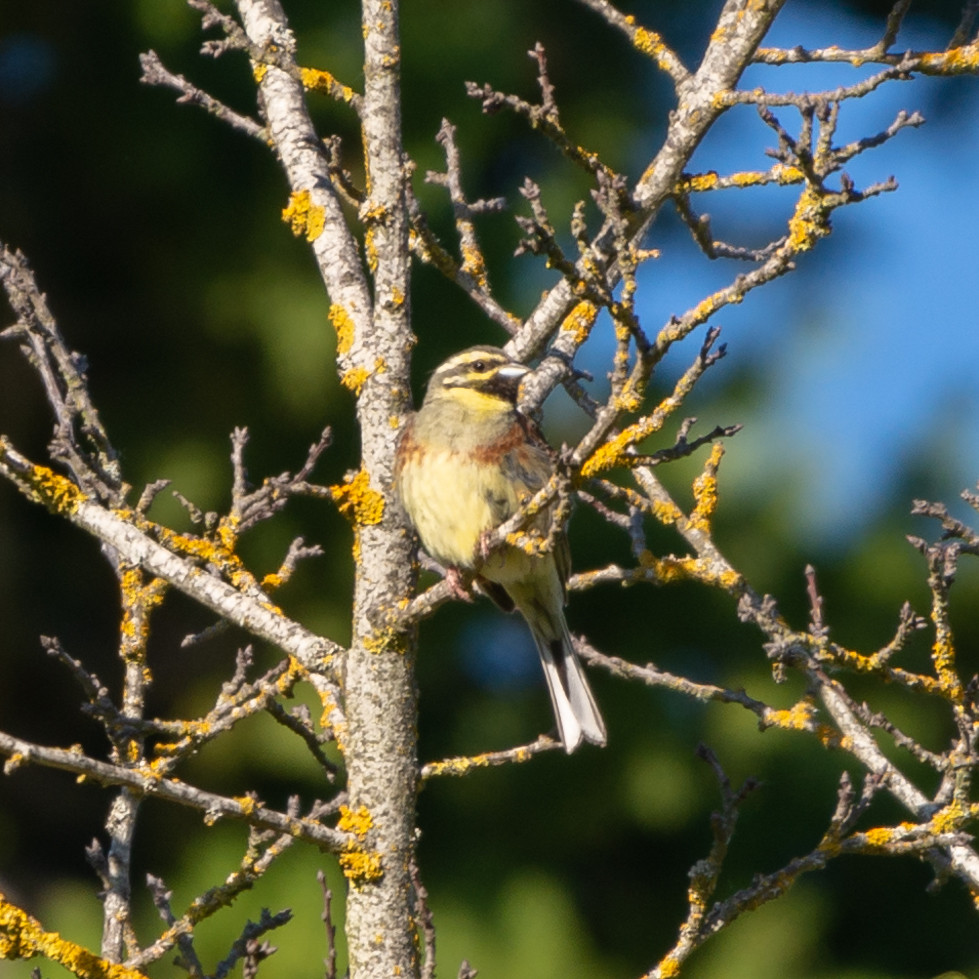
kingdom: Animalia
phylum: Chordata
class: Aves
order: Passeriformes
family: Emberizidae
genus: Emberiza
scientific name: Emberiza cirlus
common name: Cirl bunting
